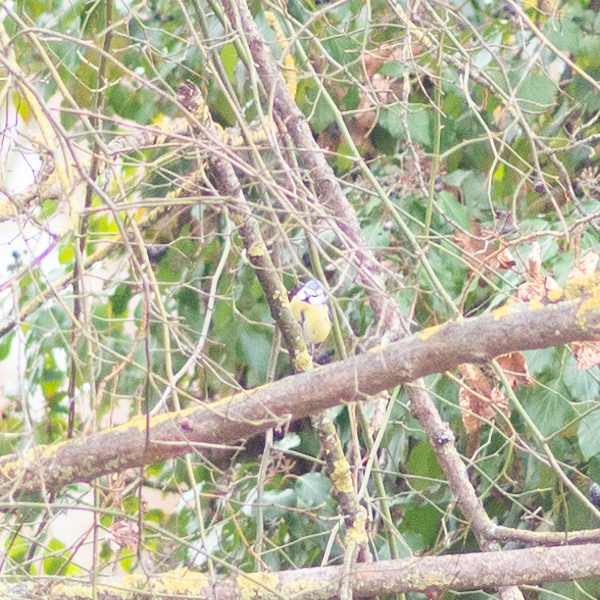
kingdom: Animalia
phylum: Chordata
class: Aves
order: Passeriformes
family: Paridae
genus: Cyanistes
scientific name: Cyanistes caeruleus
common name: Eurasian blue tit
